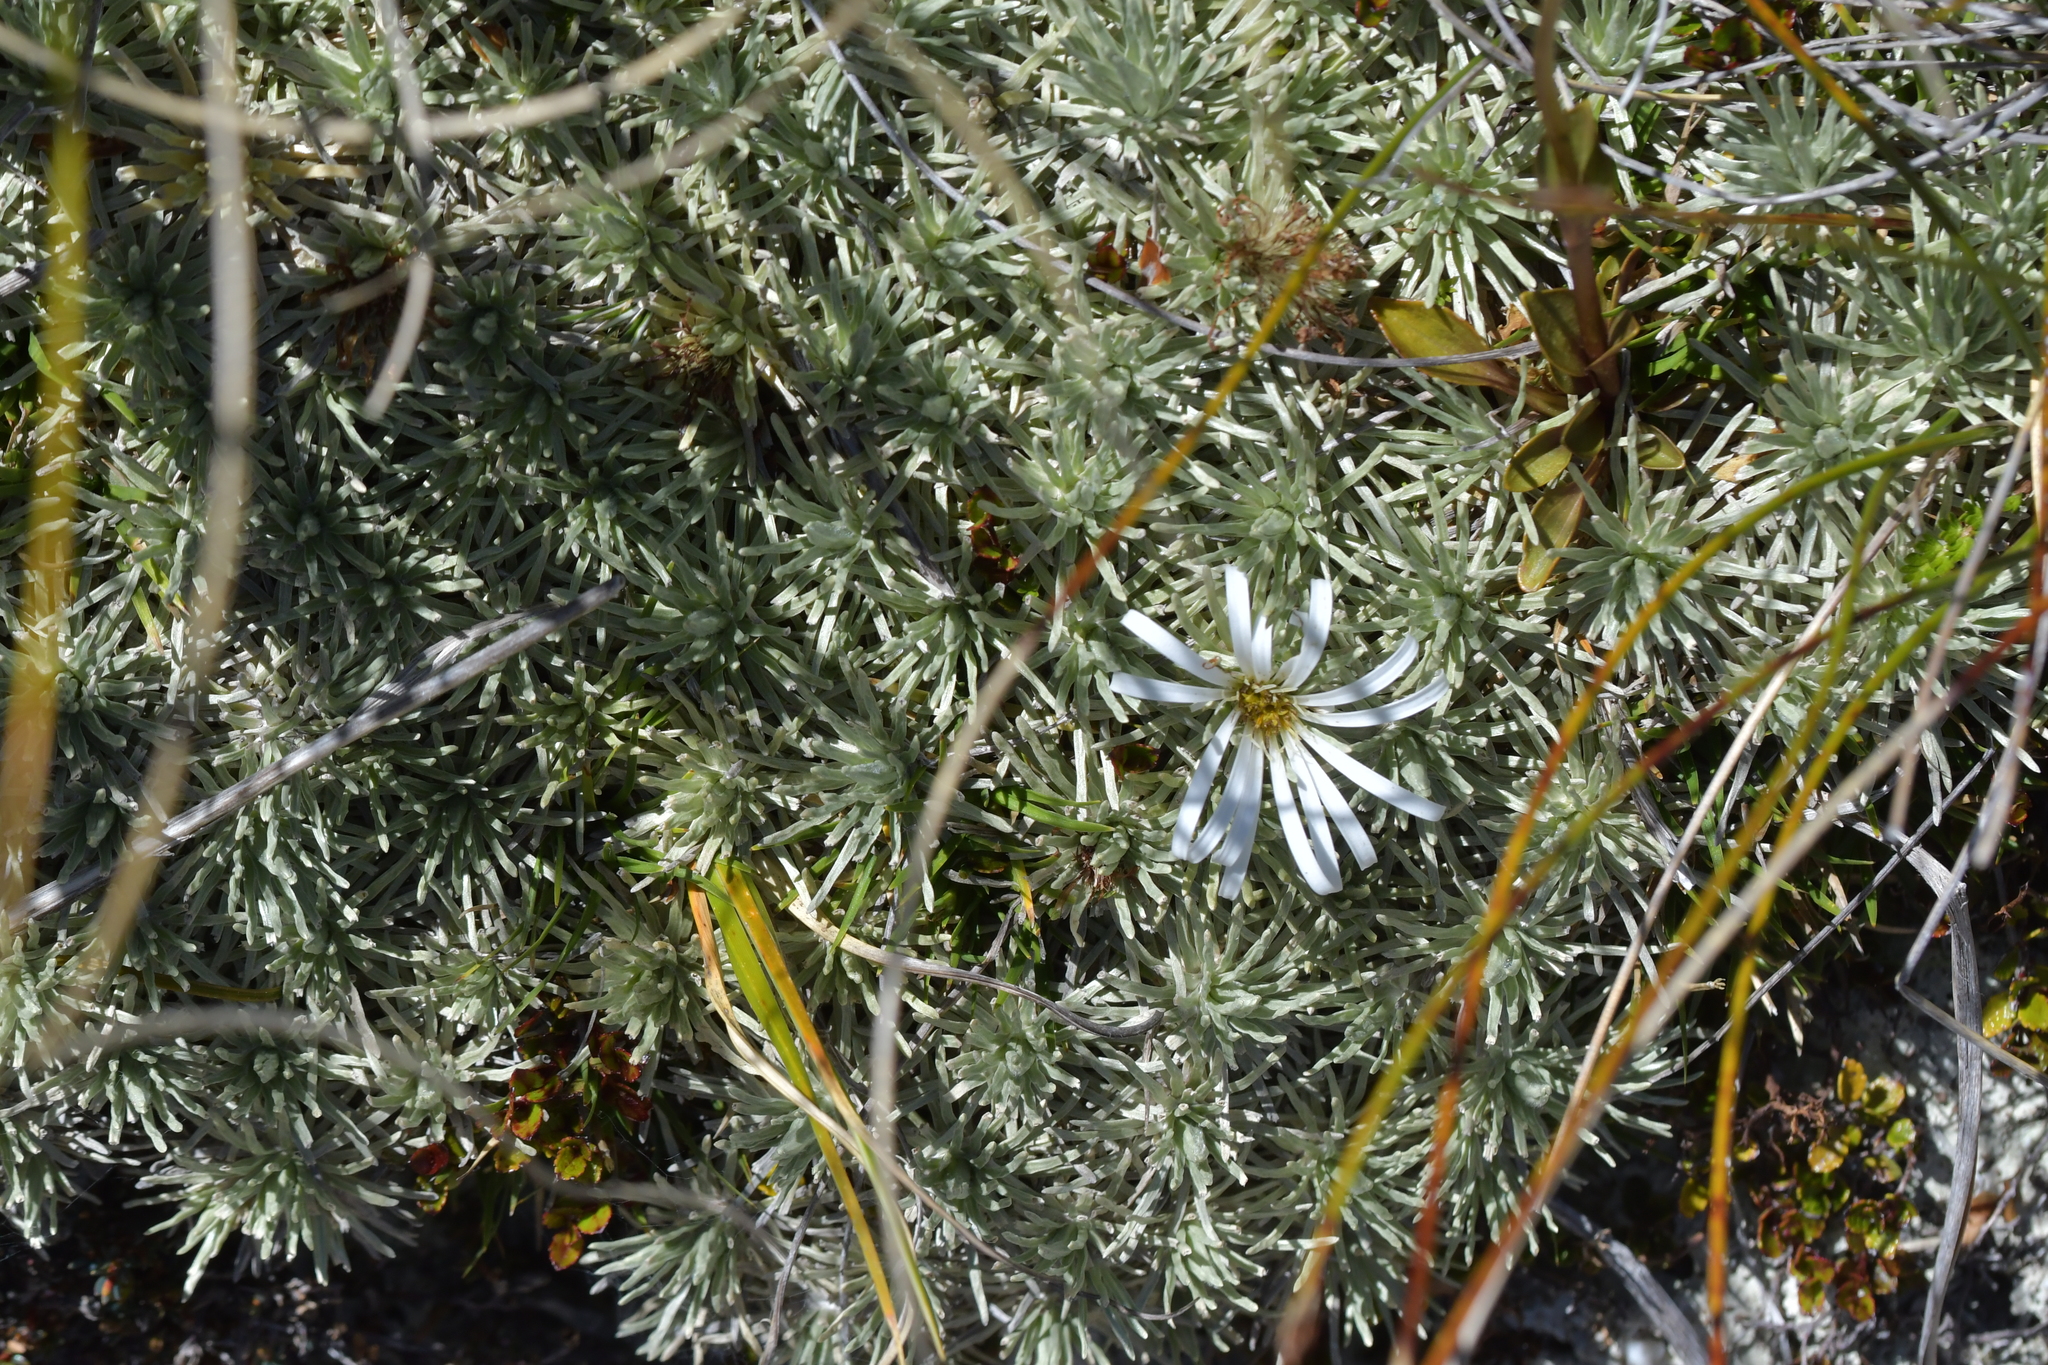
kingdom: Plantae
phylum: Tracheophyta
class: Magnoliopsida
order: Asterales
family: Asteraceae
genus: Celmisia
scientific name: Celmisia sessiliflora
